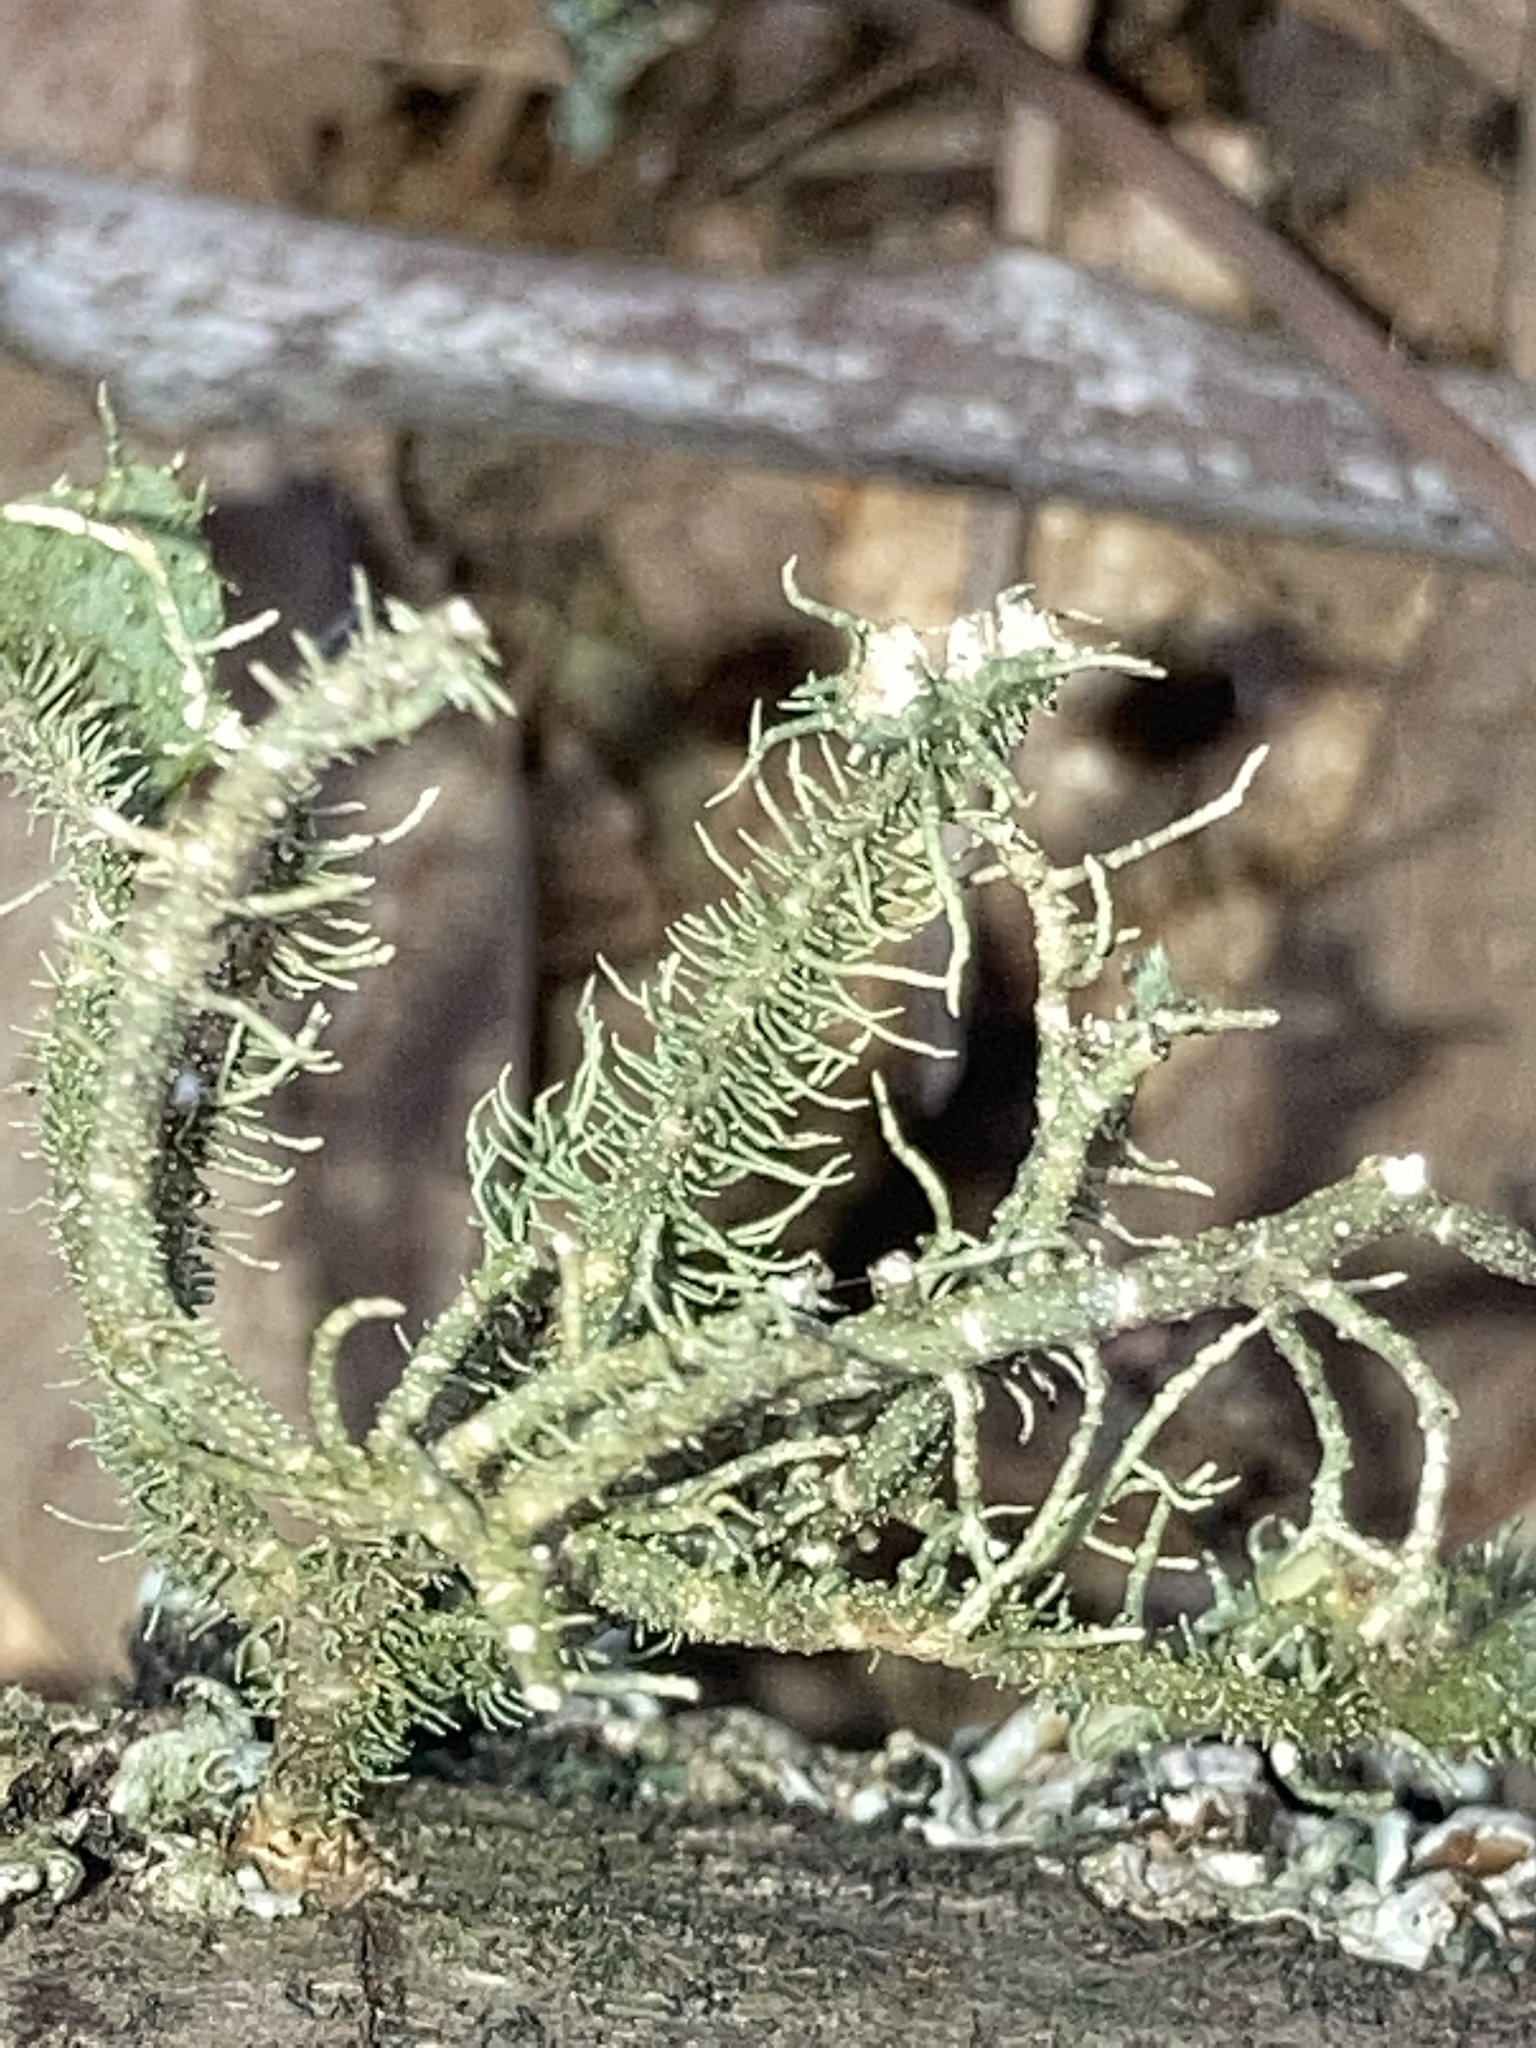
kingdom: Fungi
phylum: Ascomycota
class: Lecanoromycetes
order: Lecanorales
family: Parmeliaceae
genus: Usnea
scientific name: Usnea strigosa
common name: Bushy beard lichen
